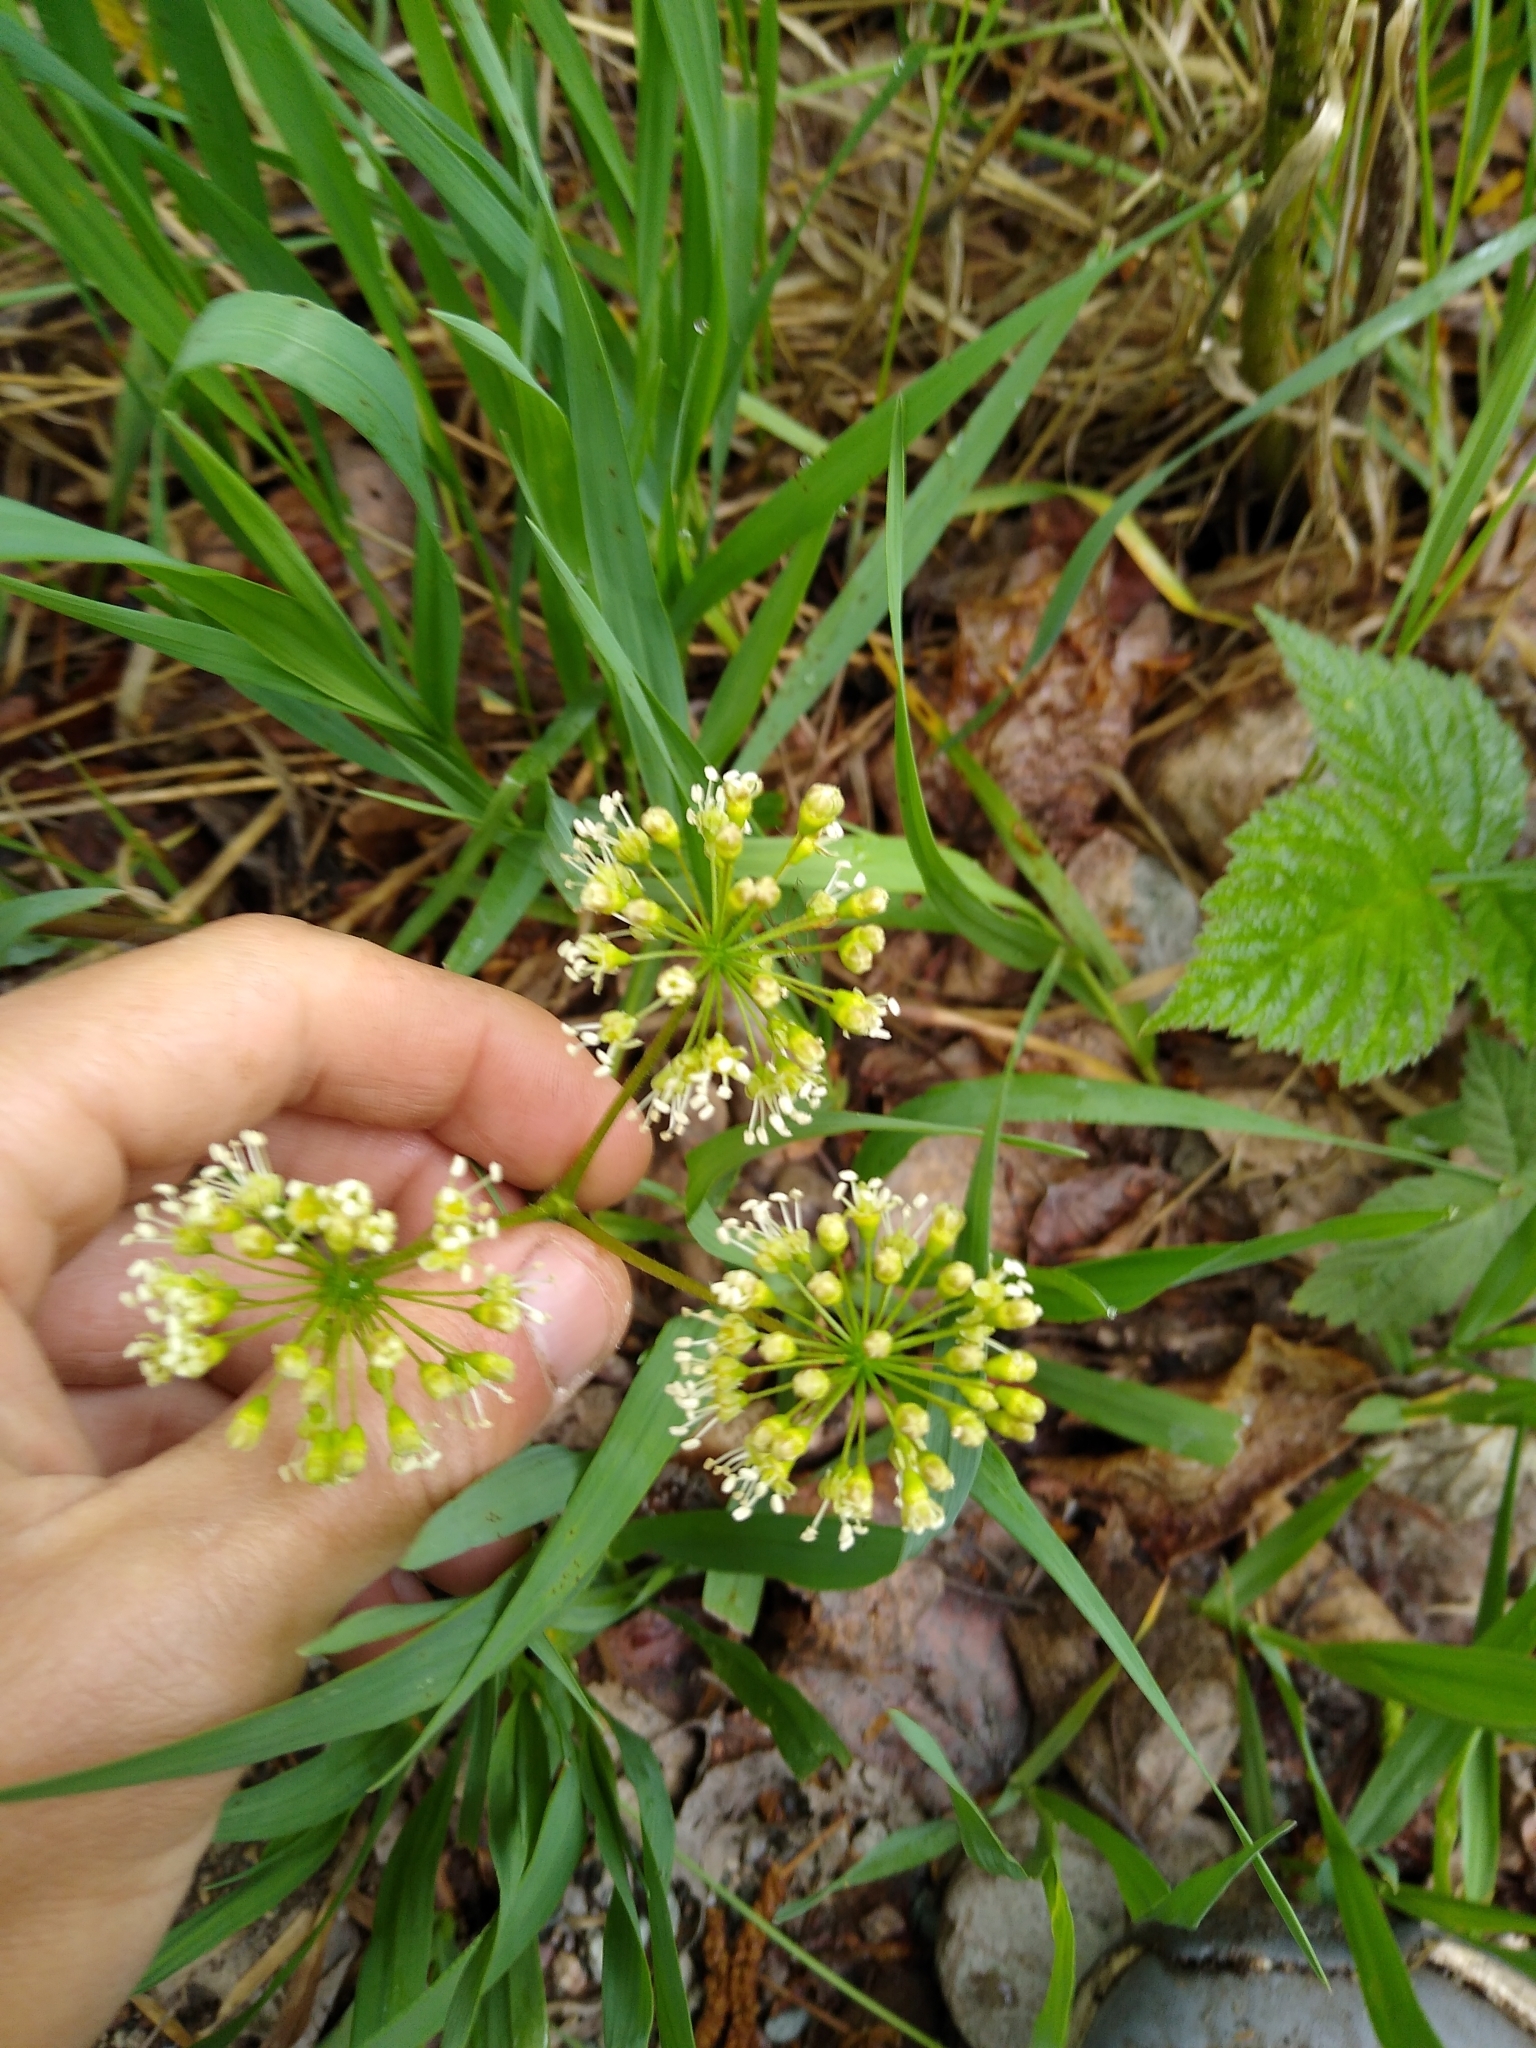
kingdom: Plantae
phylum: Tracheophyta
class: Magnoliopsida
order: Apiales
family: Araliaceae
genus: Aralia
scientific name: Aralia nudicaulis
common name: Wild sarsaparilla
